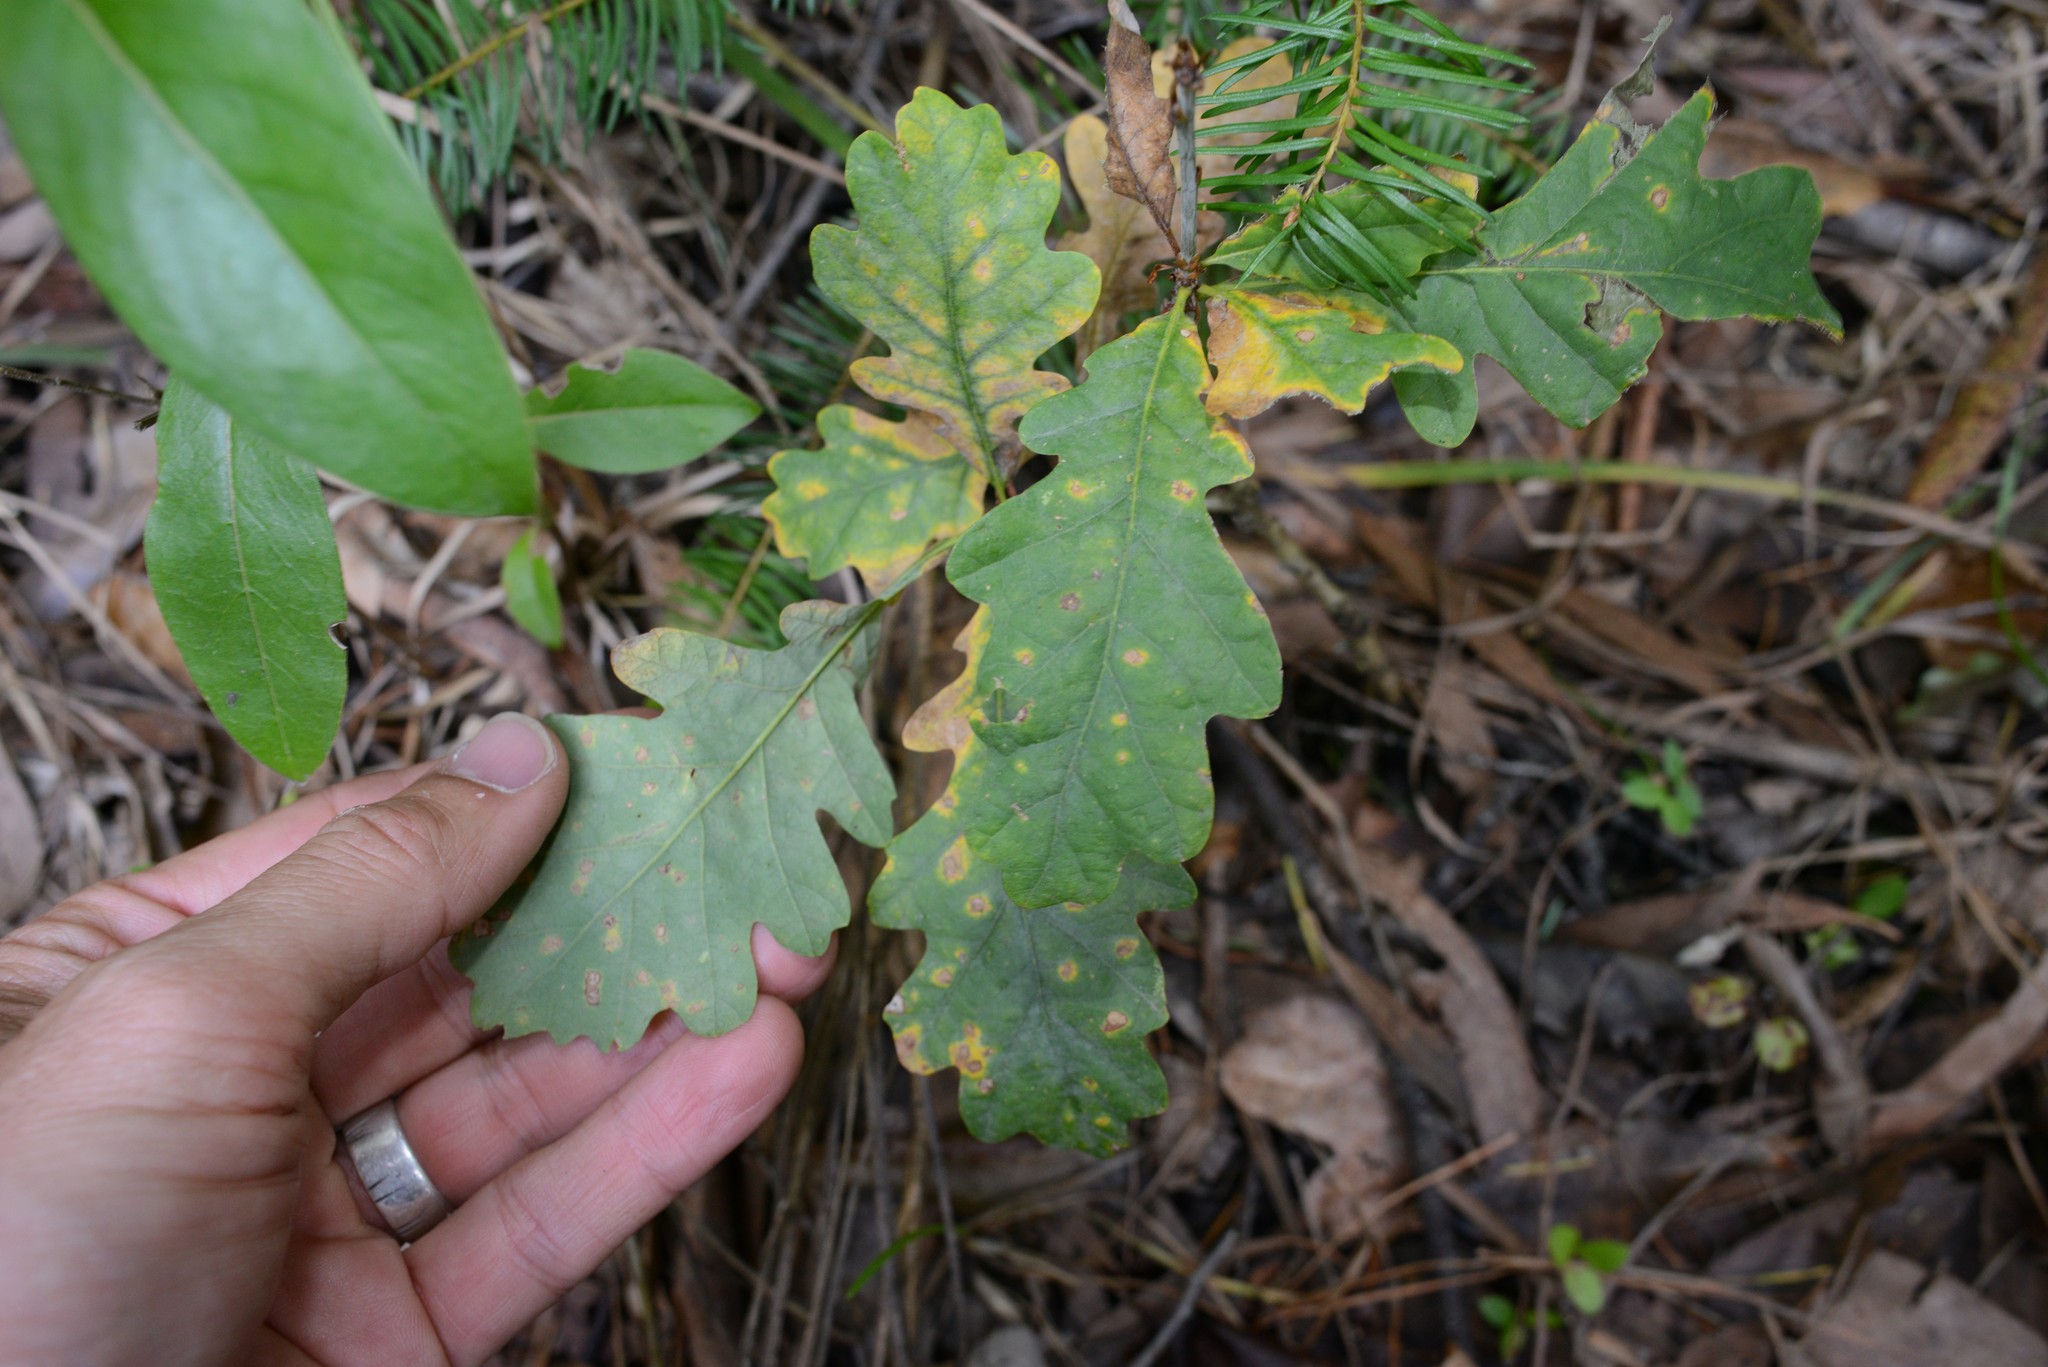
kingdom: Plantae
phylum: Tracheophyta
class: Magnoliopsida
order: Fagales
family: Fagaceae
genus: Quercus
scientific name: Quercus robur
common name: Pedunculate oak
